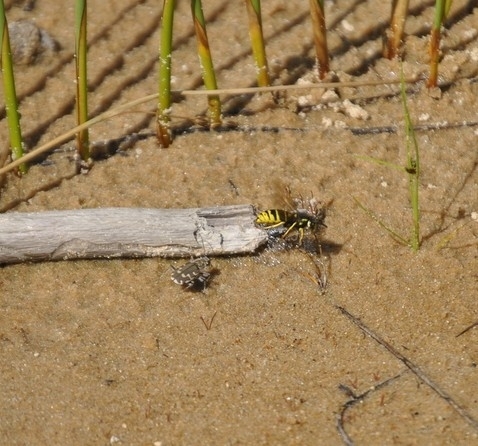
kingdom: Animalia
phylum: Arthropoda
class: Insecta
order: Hymenoptera
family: Vespidae
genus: Vespula
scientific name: Vespula vidua
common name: Widow yellowjacket
